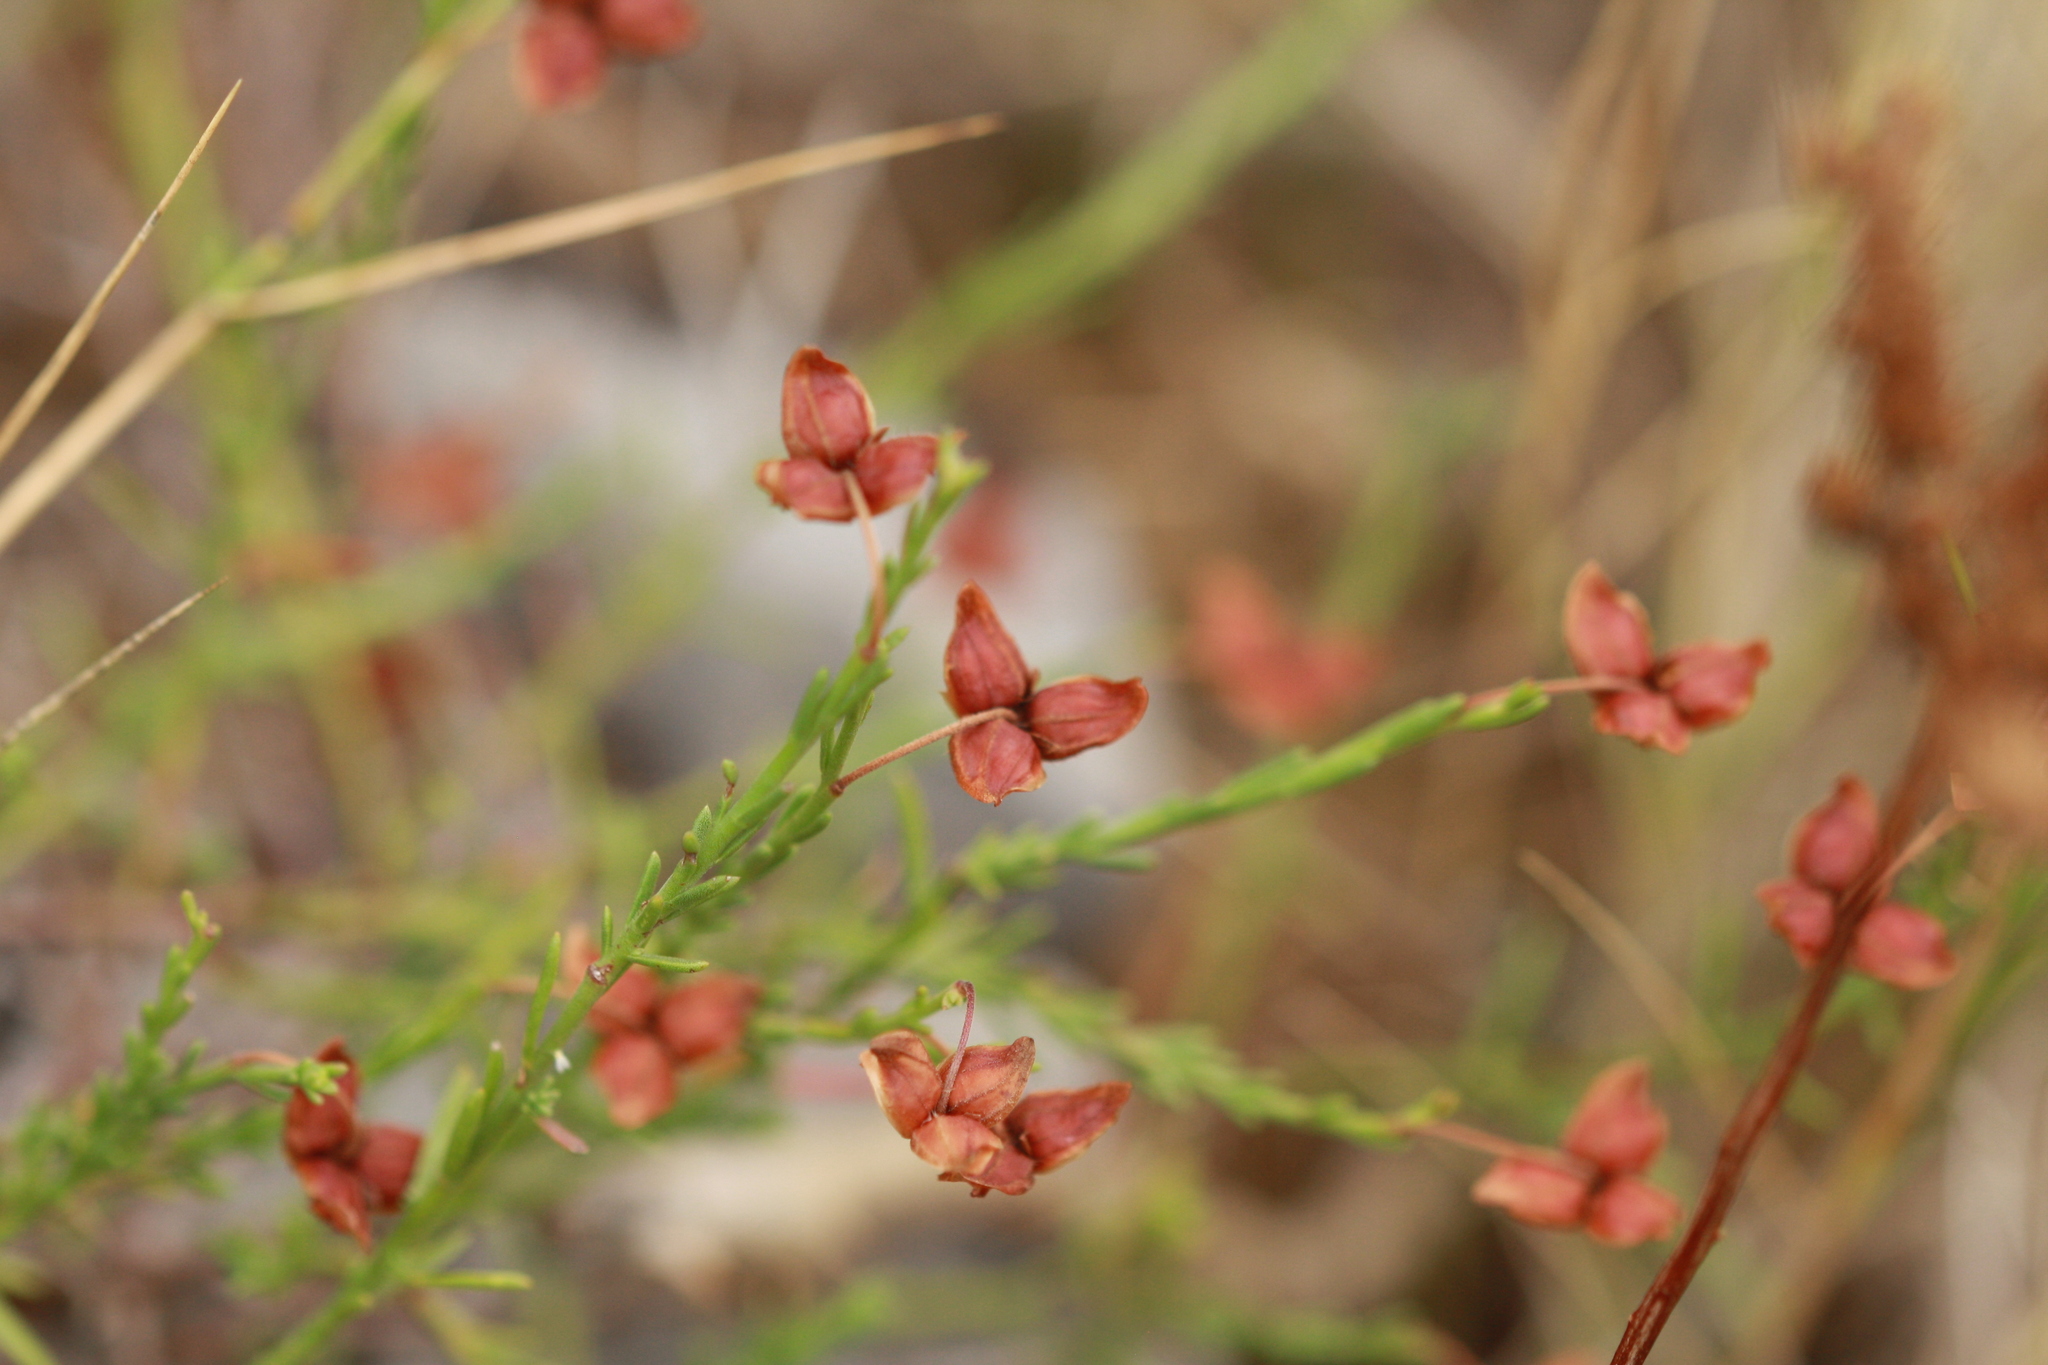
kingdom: Plantae
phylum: Tracheophyta
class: Magnoliopsida
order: Malvales
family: Cistaceae
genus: Fumana
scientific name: Fumana thymifolia
